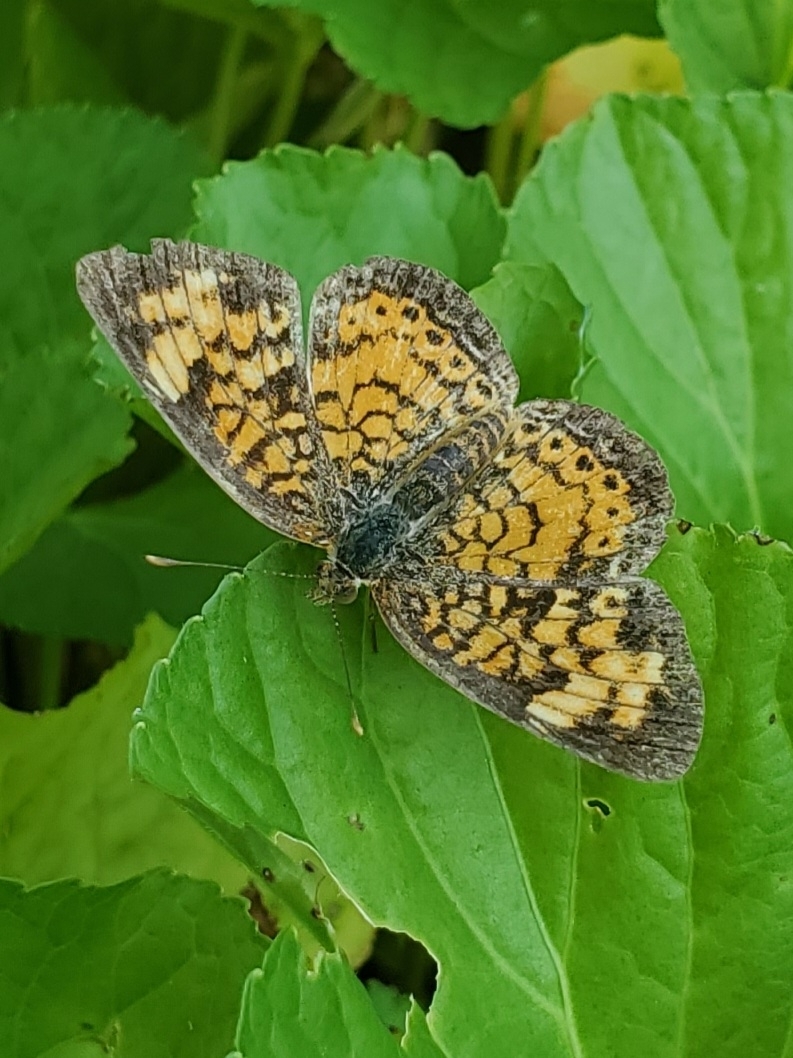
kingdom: Animalia
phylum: Arthropoda
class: Insecta
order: Lepidoptera
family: Nymphalidae
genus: Phyciodes
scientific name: Phyciodes tharos
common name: Pearl crescent
